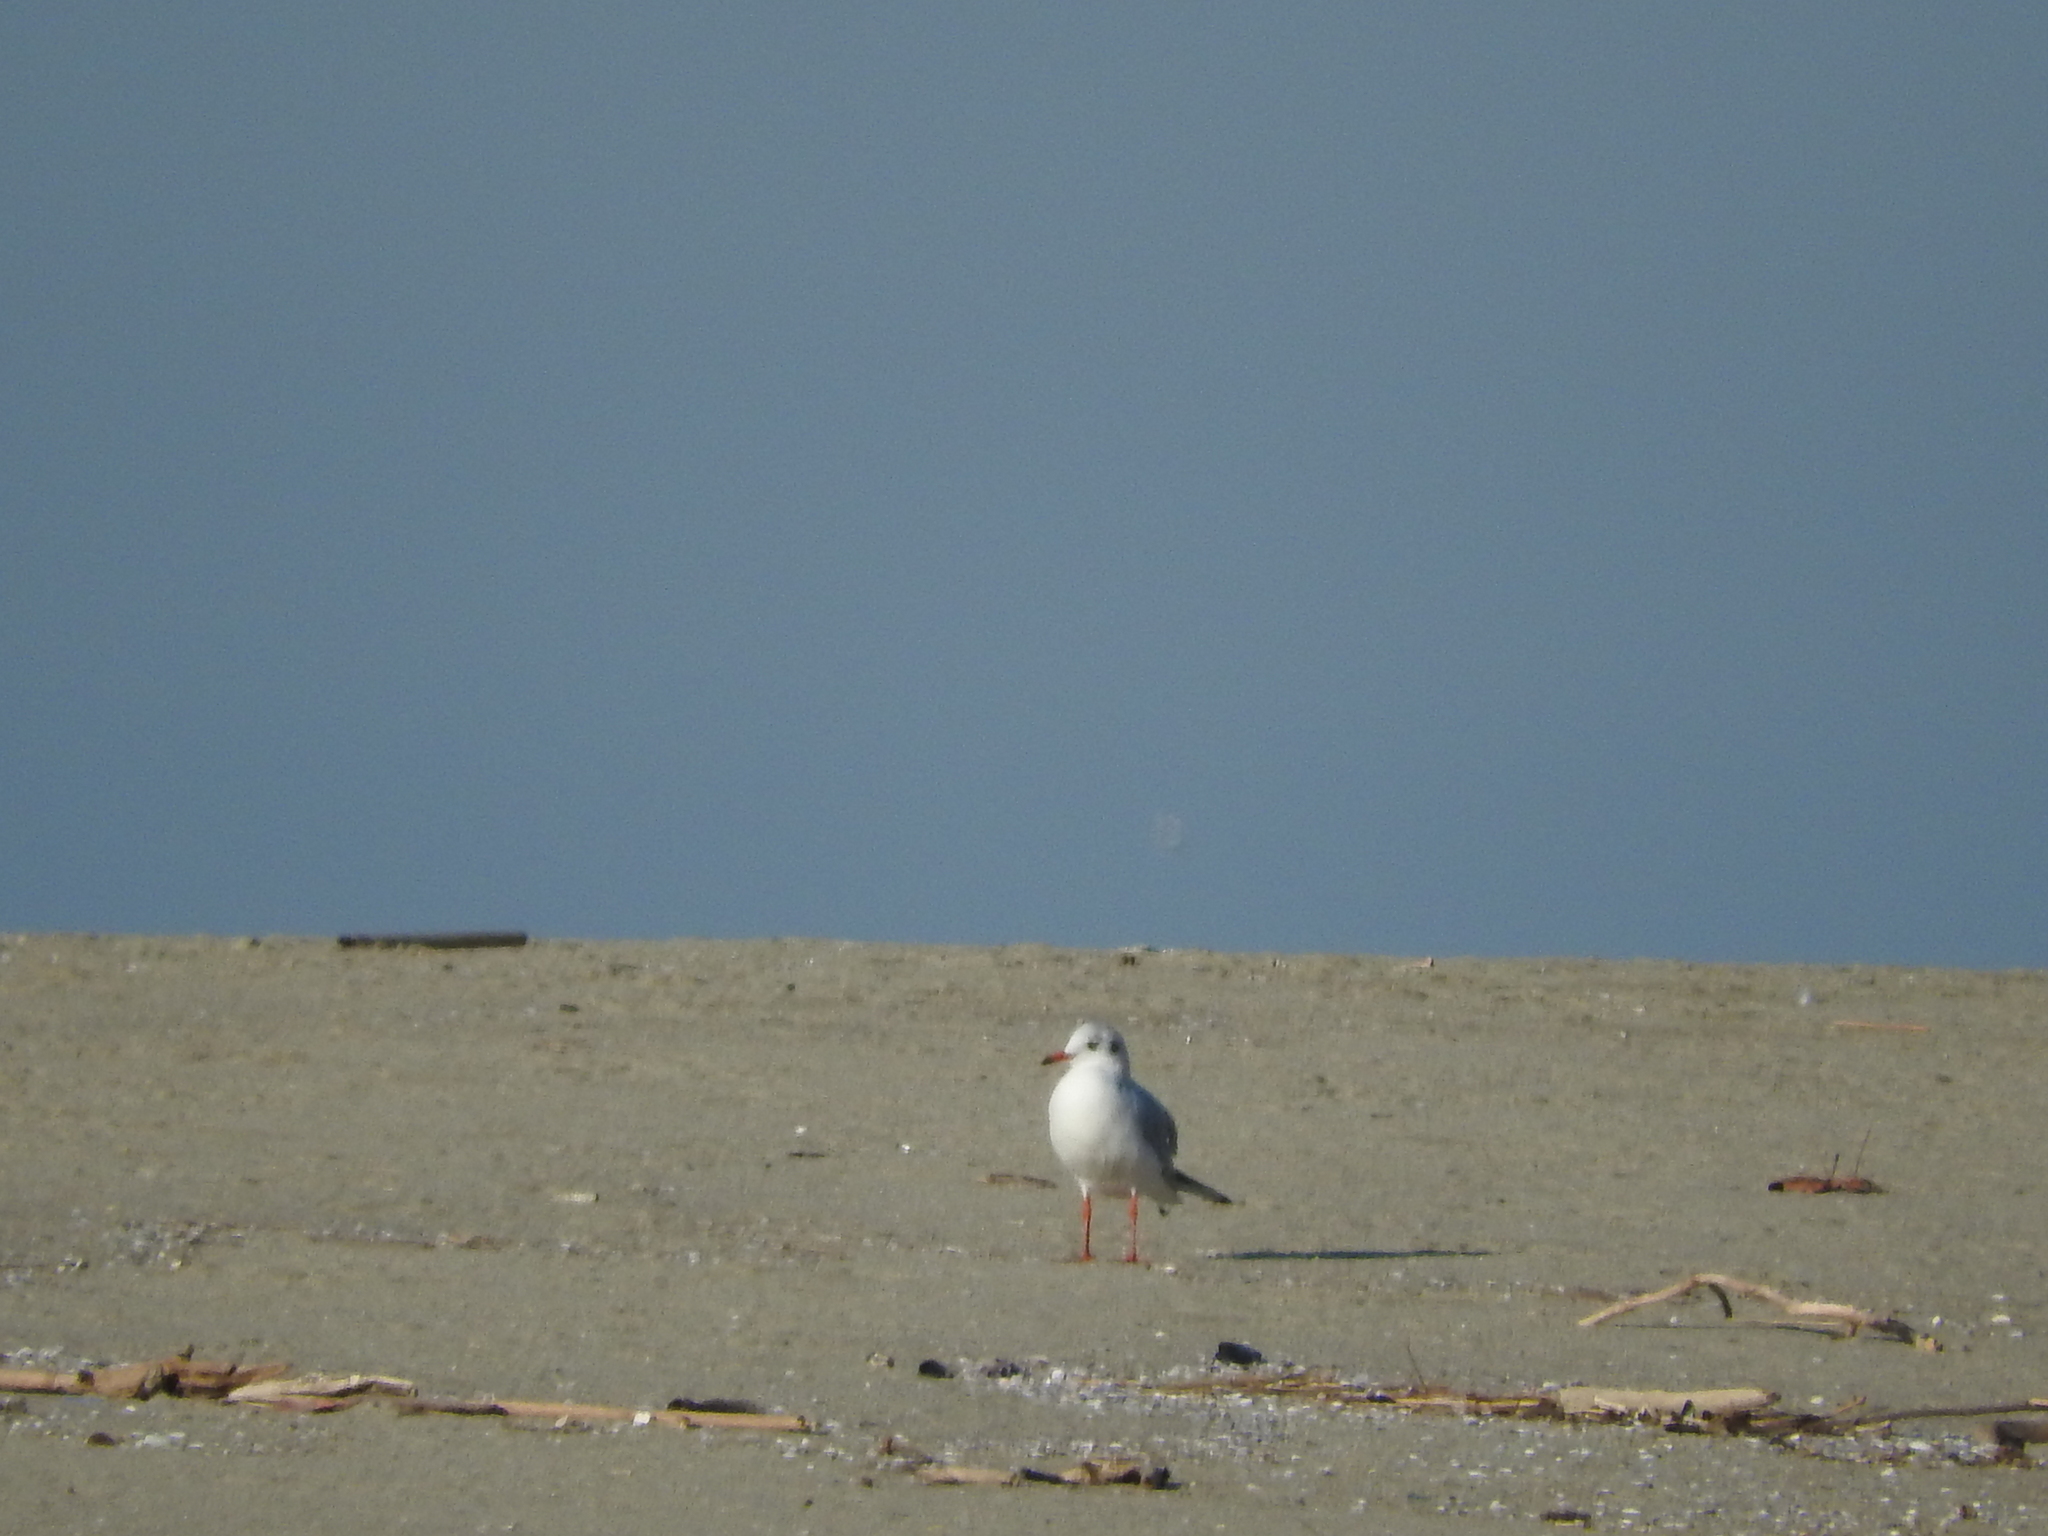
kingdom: Animalia
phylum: Chordata
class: Aves
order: Charadriiformes
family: Laridae
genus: Chroicocephalus
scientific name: Chroicocephalus ridibundus
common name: Black-headed gull
